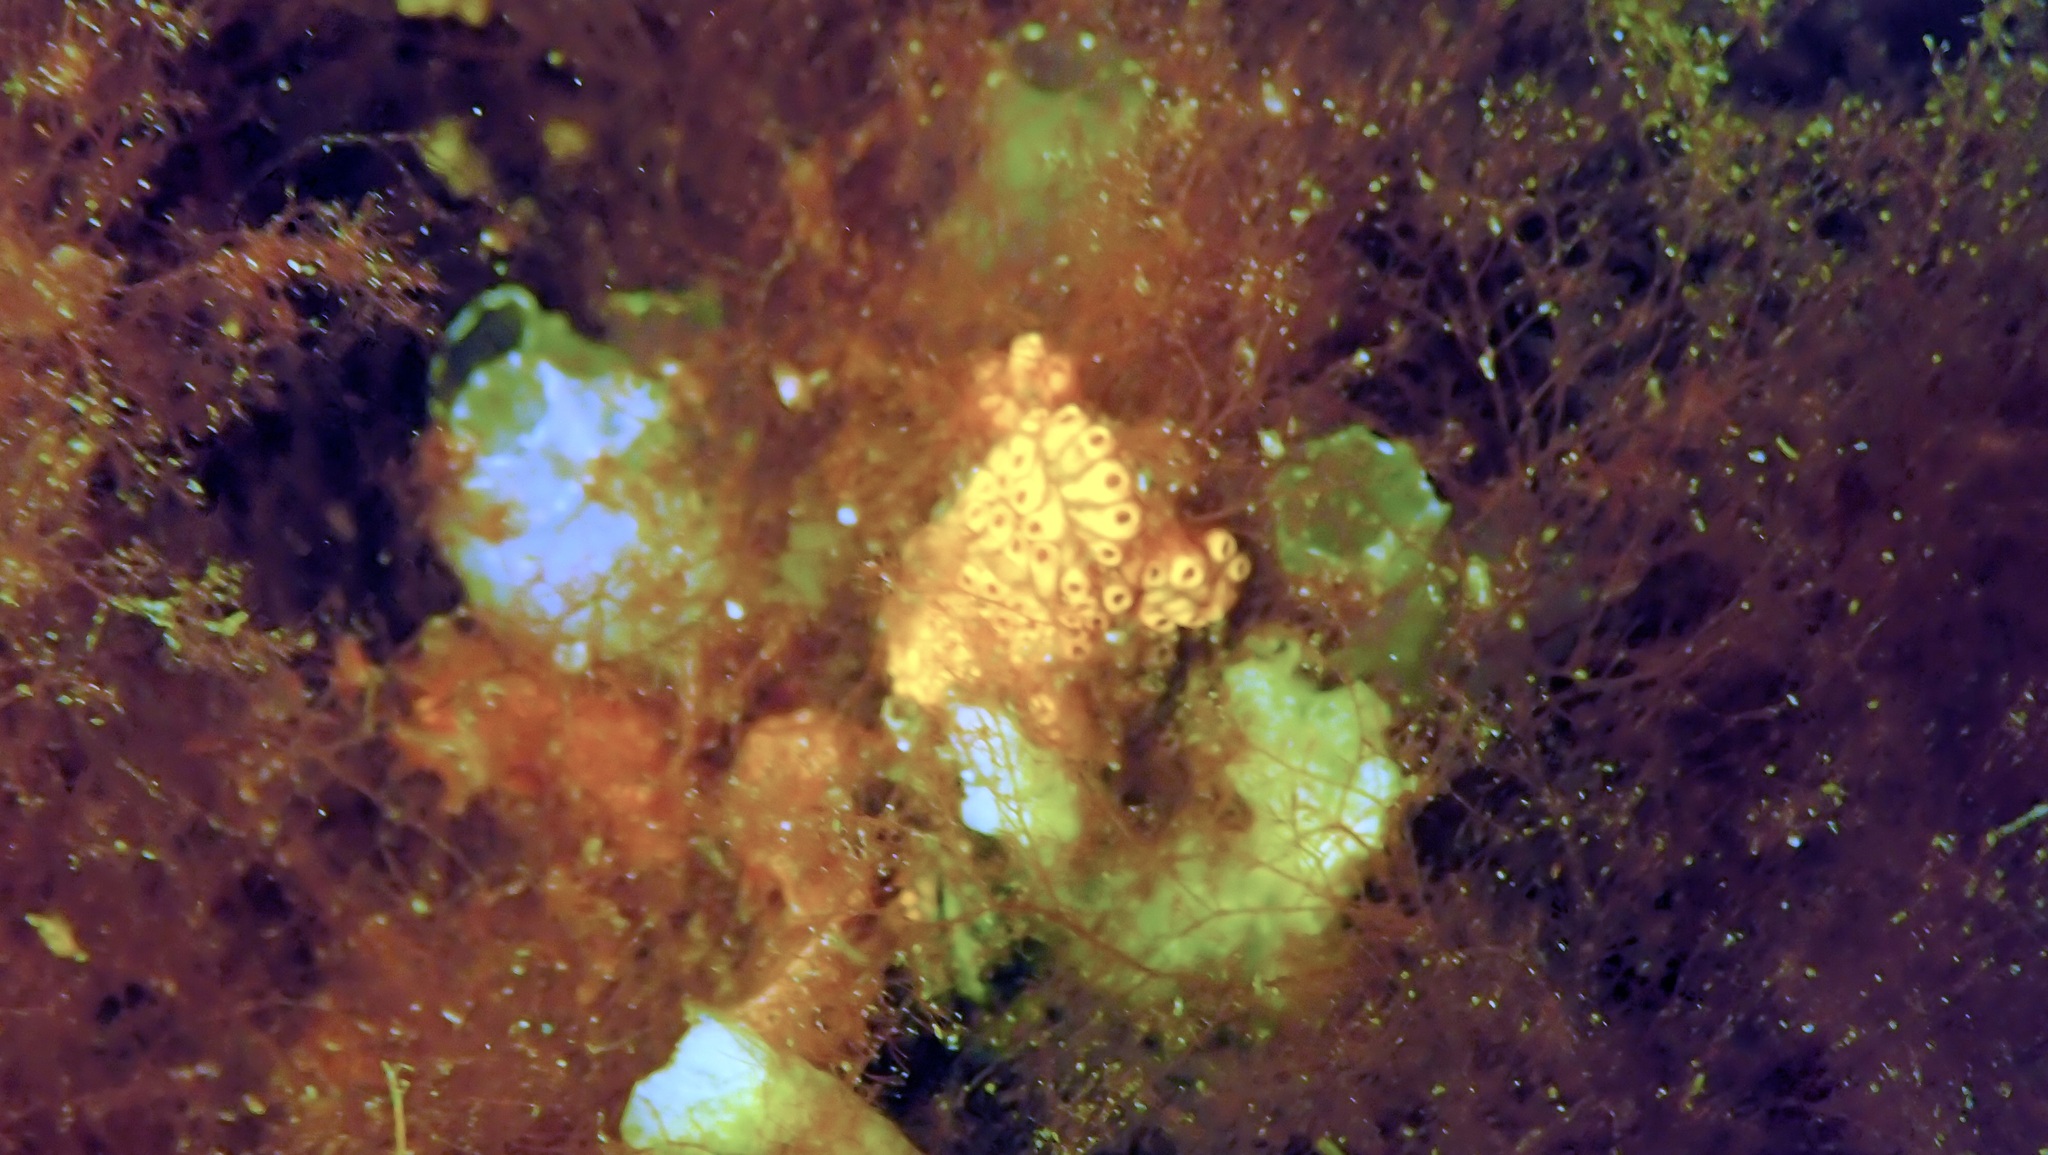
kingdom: Animalia
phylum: Chordata
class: Ascidiacea
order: Stolidobranchia
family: Styelidae
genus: Botrylloides
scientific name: Botrylloides diegensis
